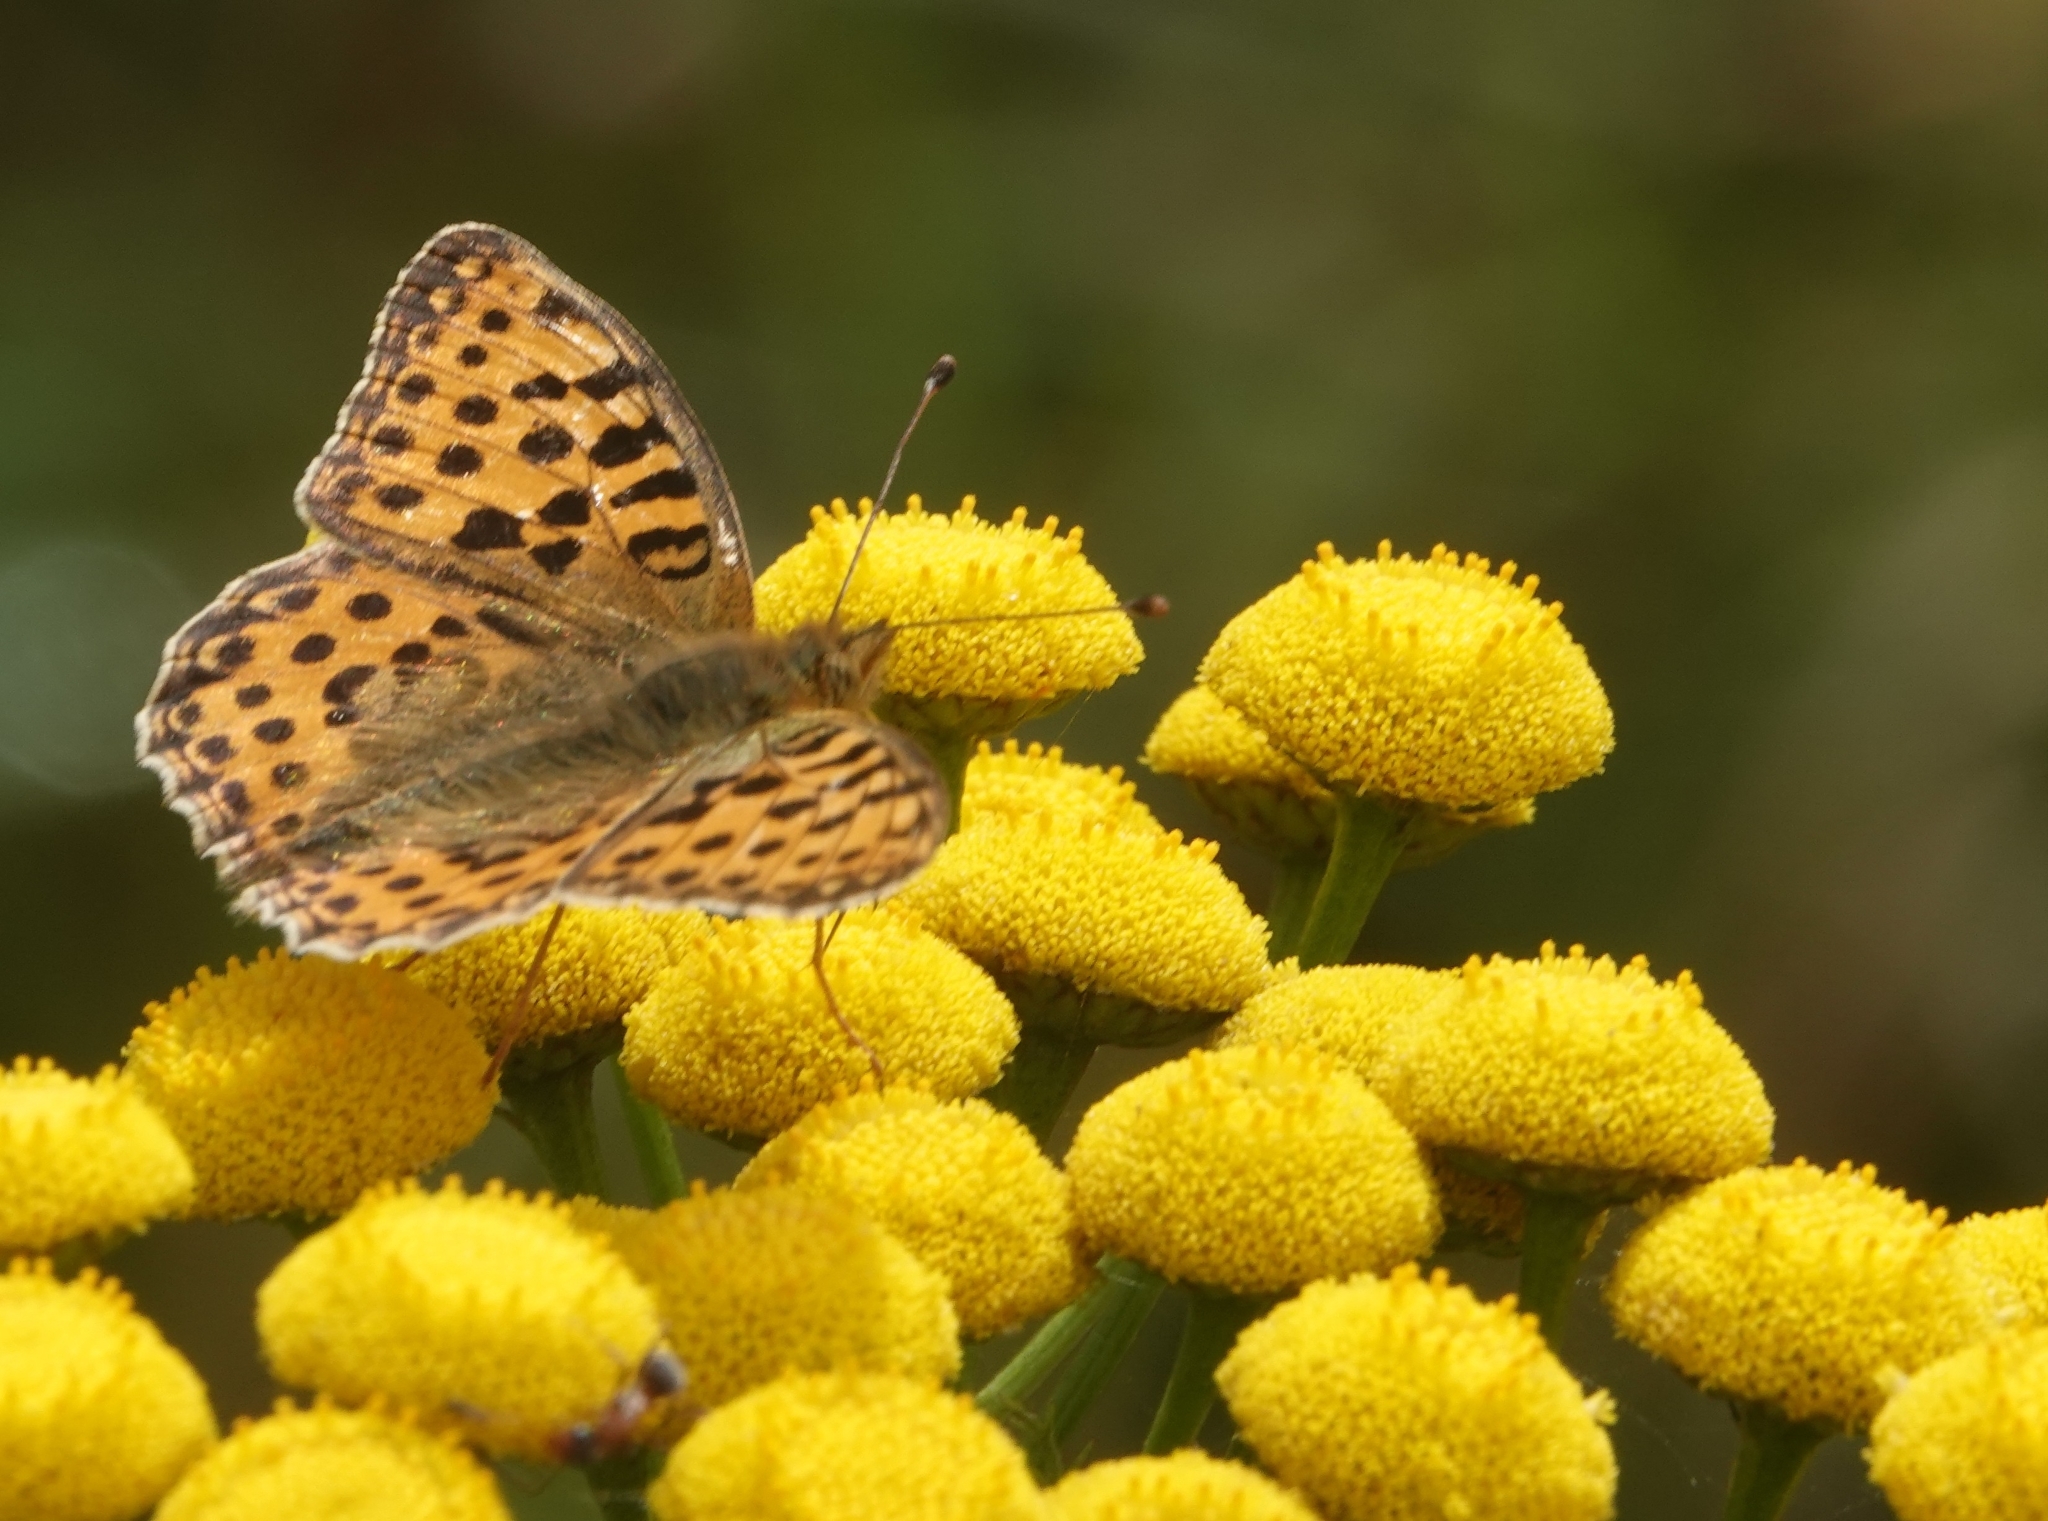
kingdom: Animalia
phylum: Arthropoda
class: Insecta
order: Lepidoptera
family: Nymphalidae
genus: Issoria
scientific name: Issoria lathonia
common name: Queen of spain fritillary
